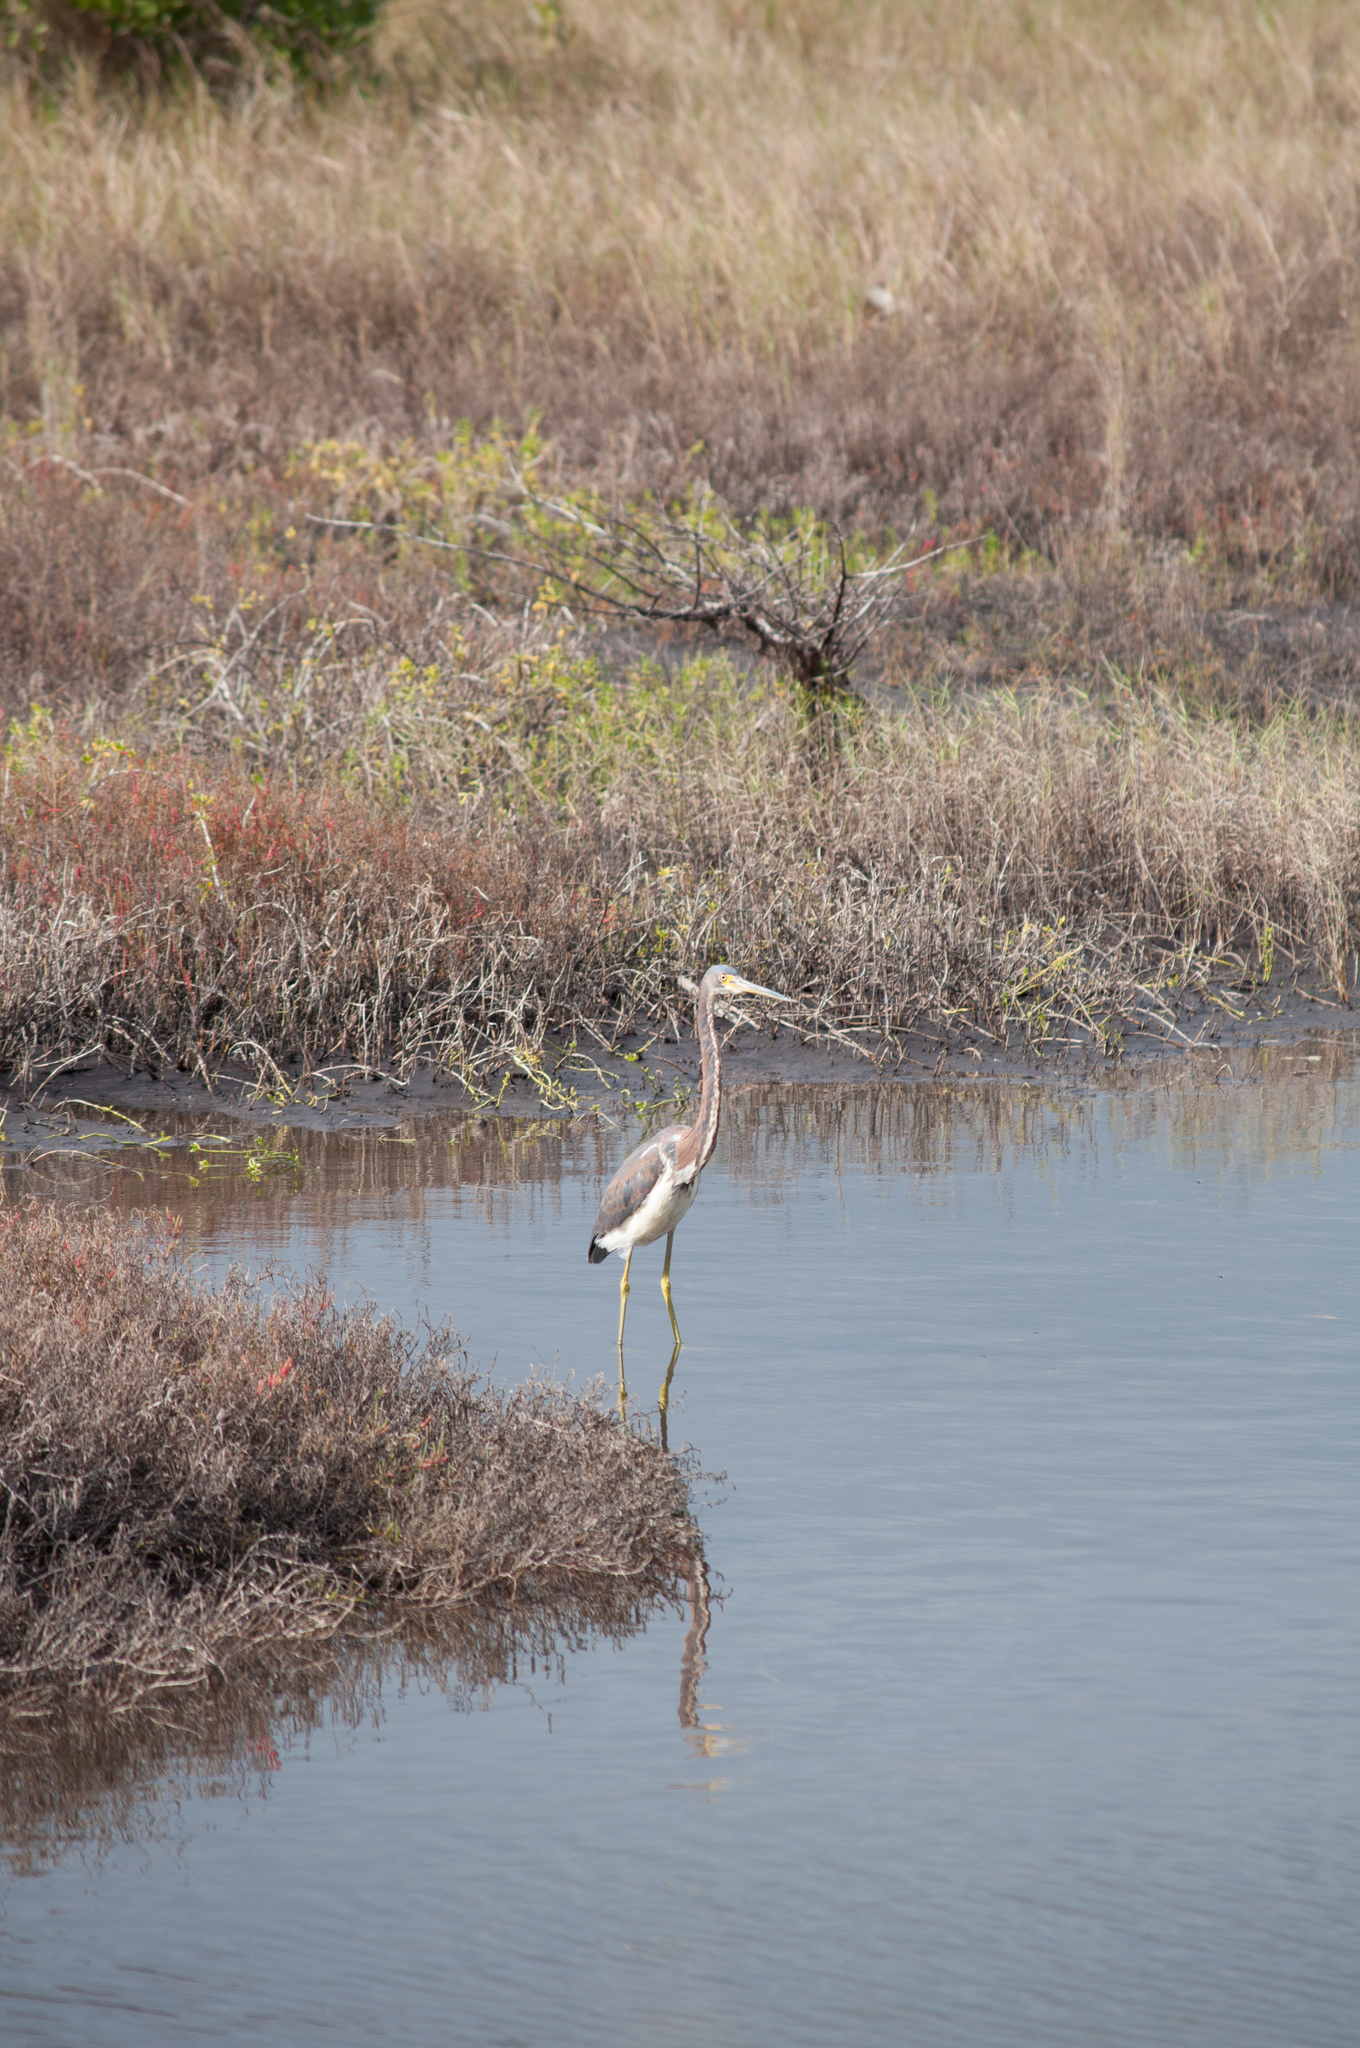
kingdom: Animalia
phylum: Chordata
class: Aves
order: Pelecaniformes
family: Ardeidae
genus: Egretta
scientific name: Egretta tricolor
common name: Tricolored heron
